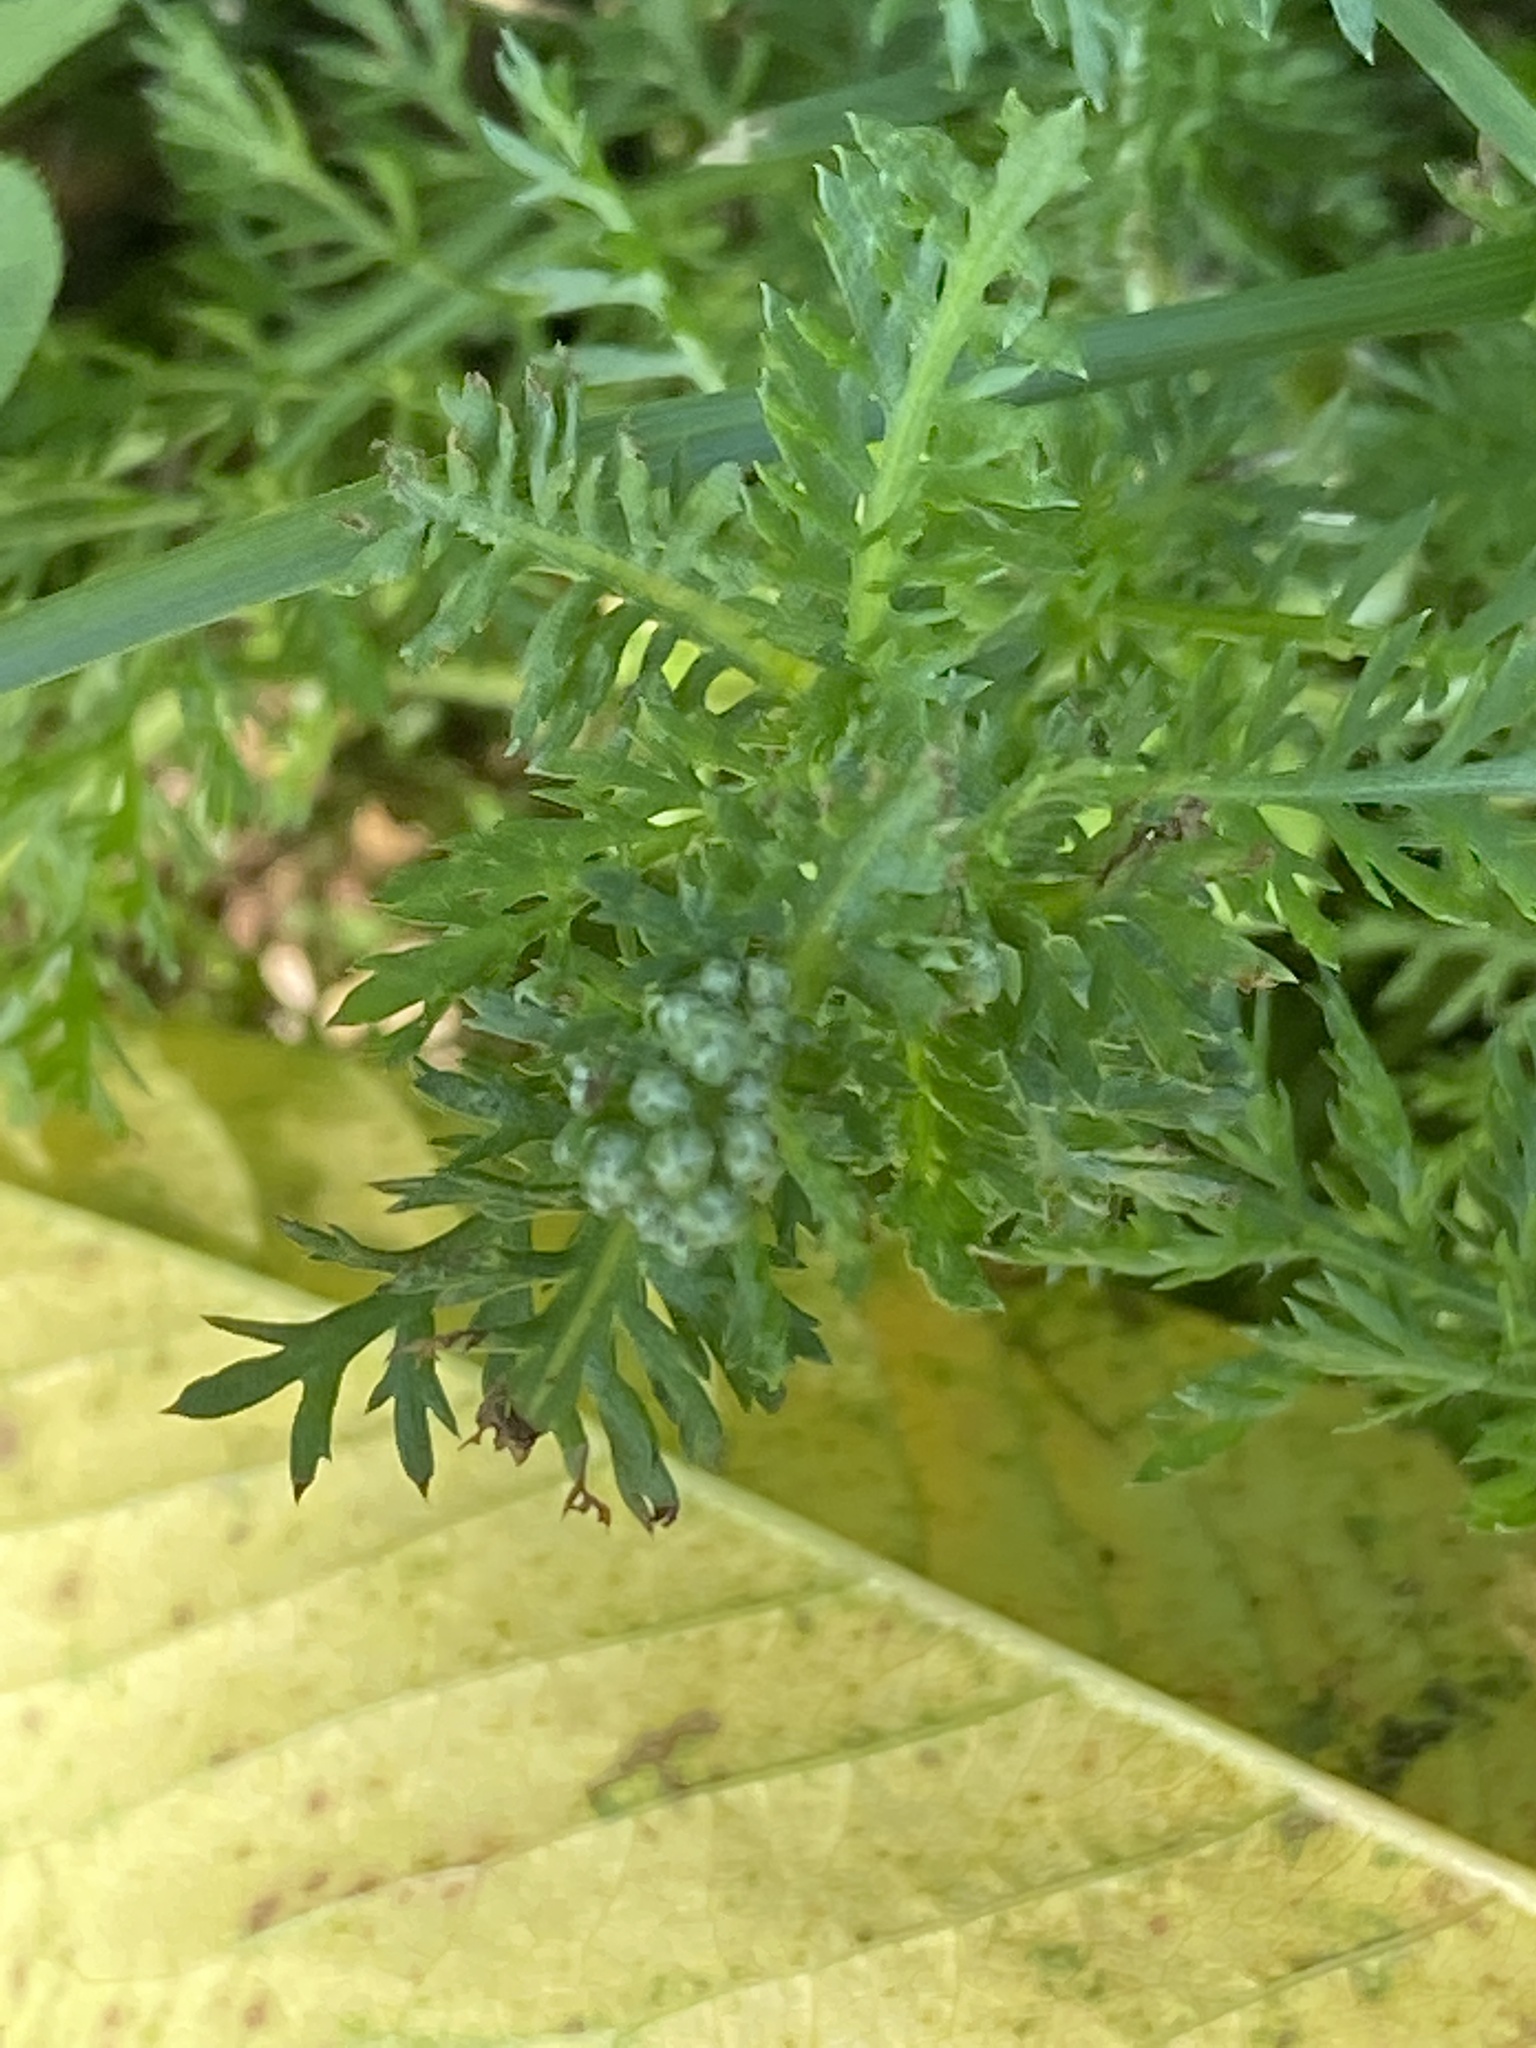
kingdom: Plantae
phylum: Tracheophyta
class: Magnoliopsida
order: Asterales
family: Asteraceae
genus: Achillea
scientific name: Achillea millefolium
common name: Yarrow
